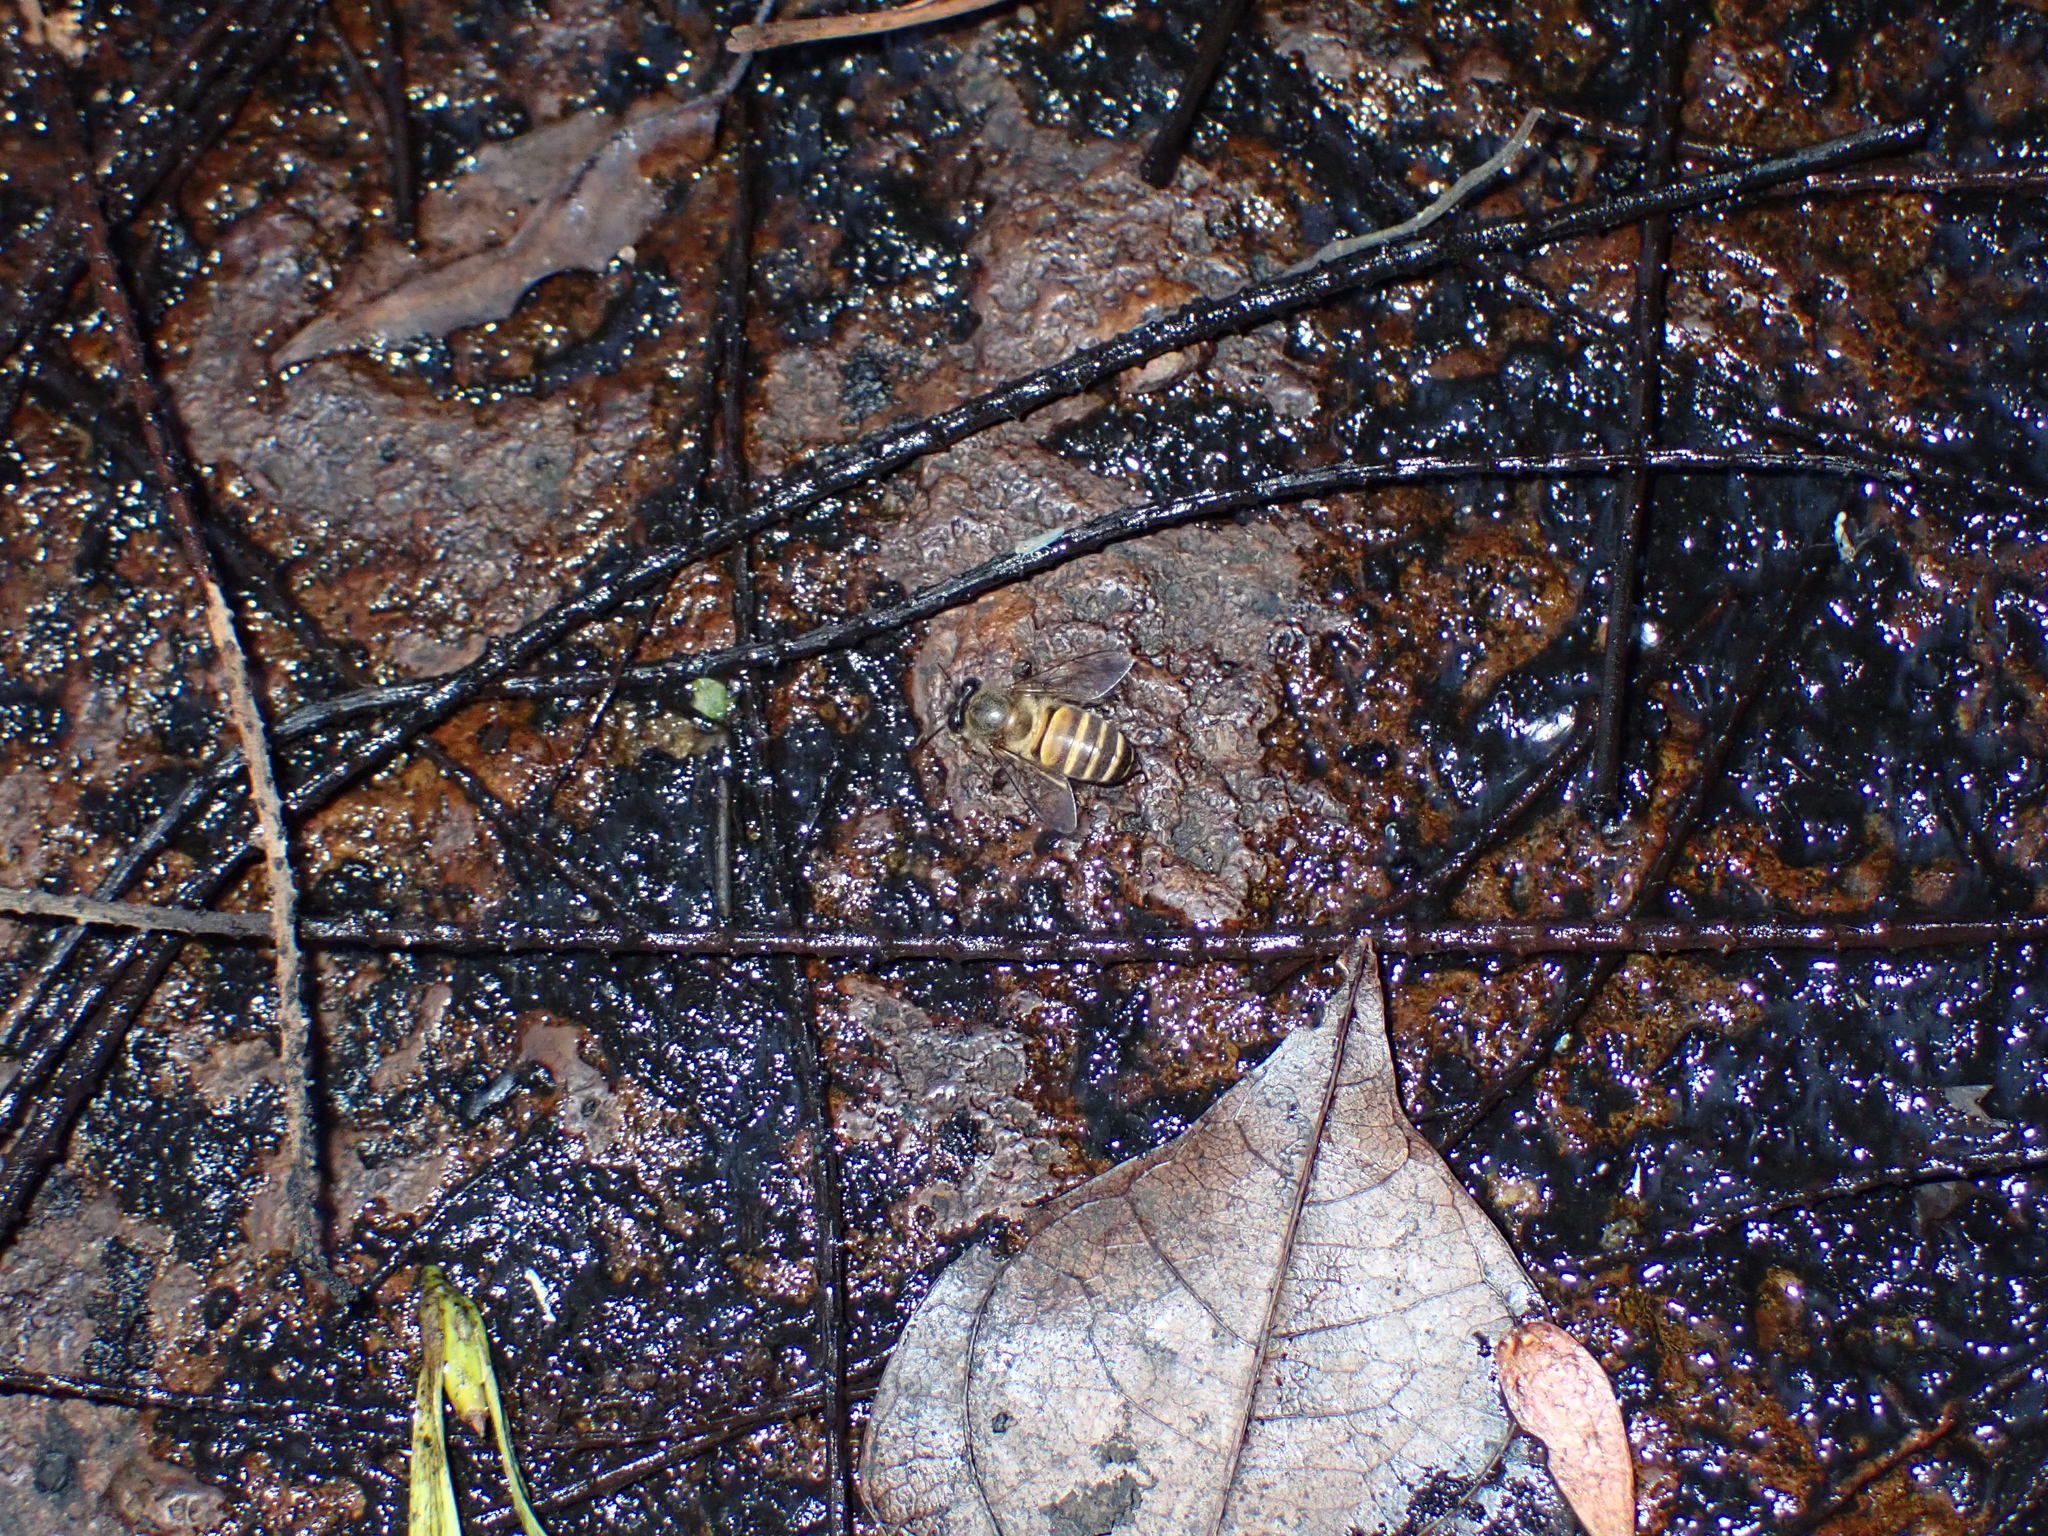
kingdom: Animalia
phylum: Arthropoda
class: Insecta
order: Hymenoptera
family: Apidae
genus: Apis
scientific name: Apis cerana
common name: Honey bee
